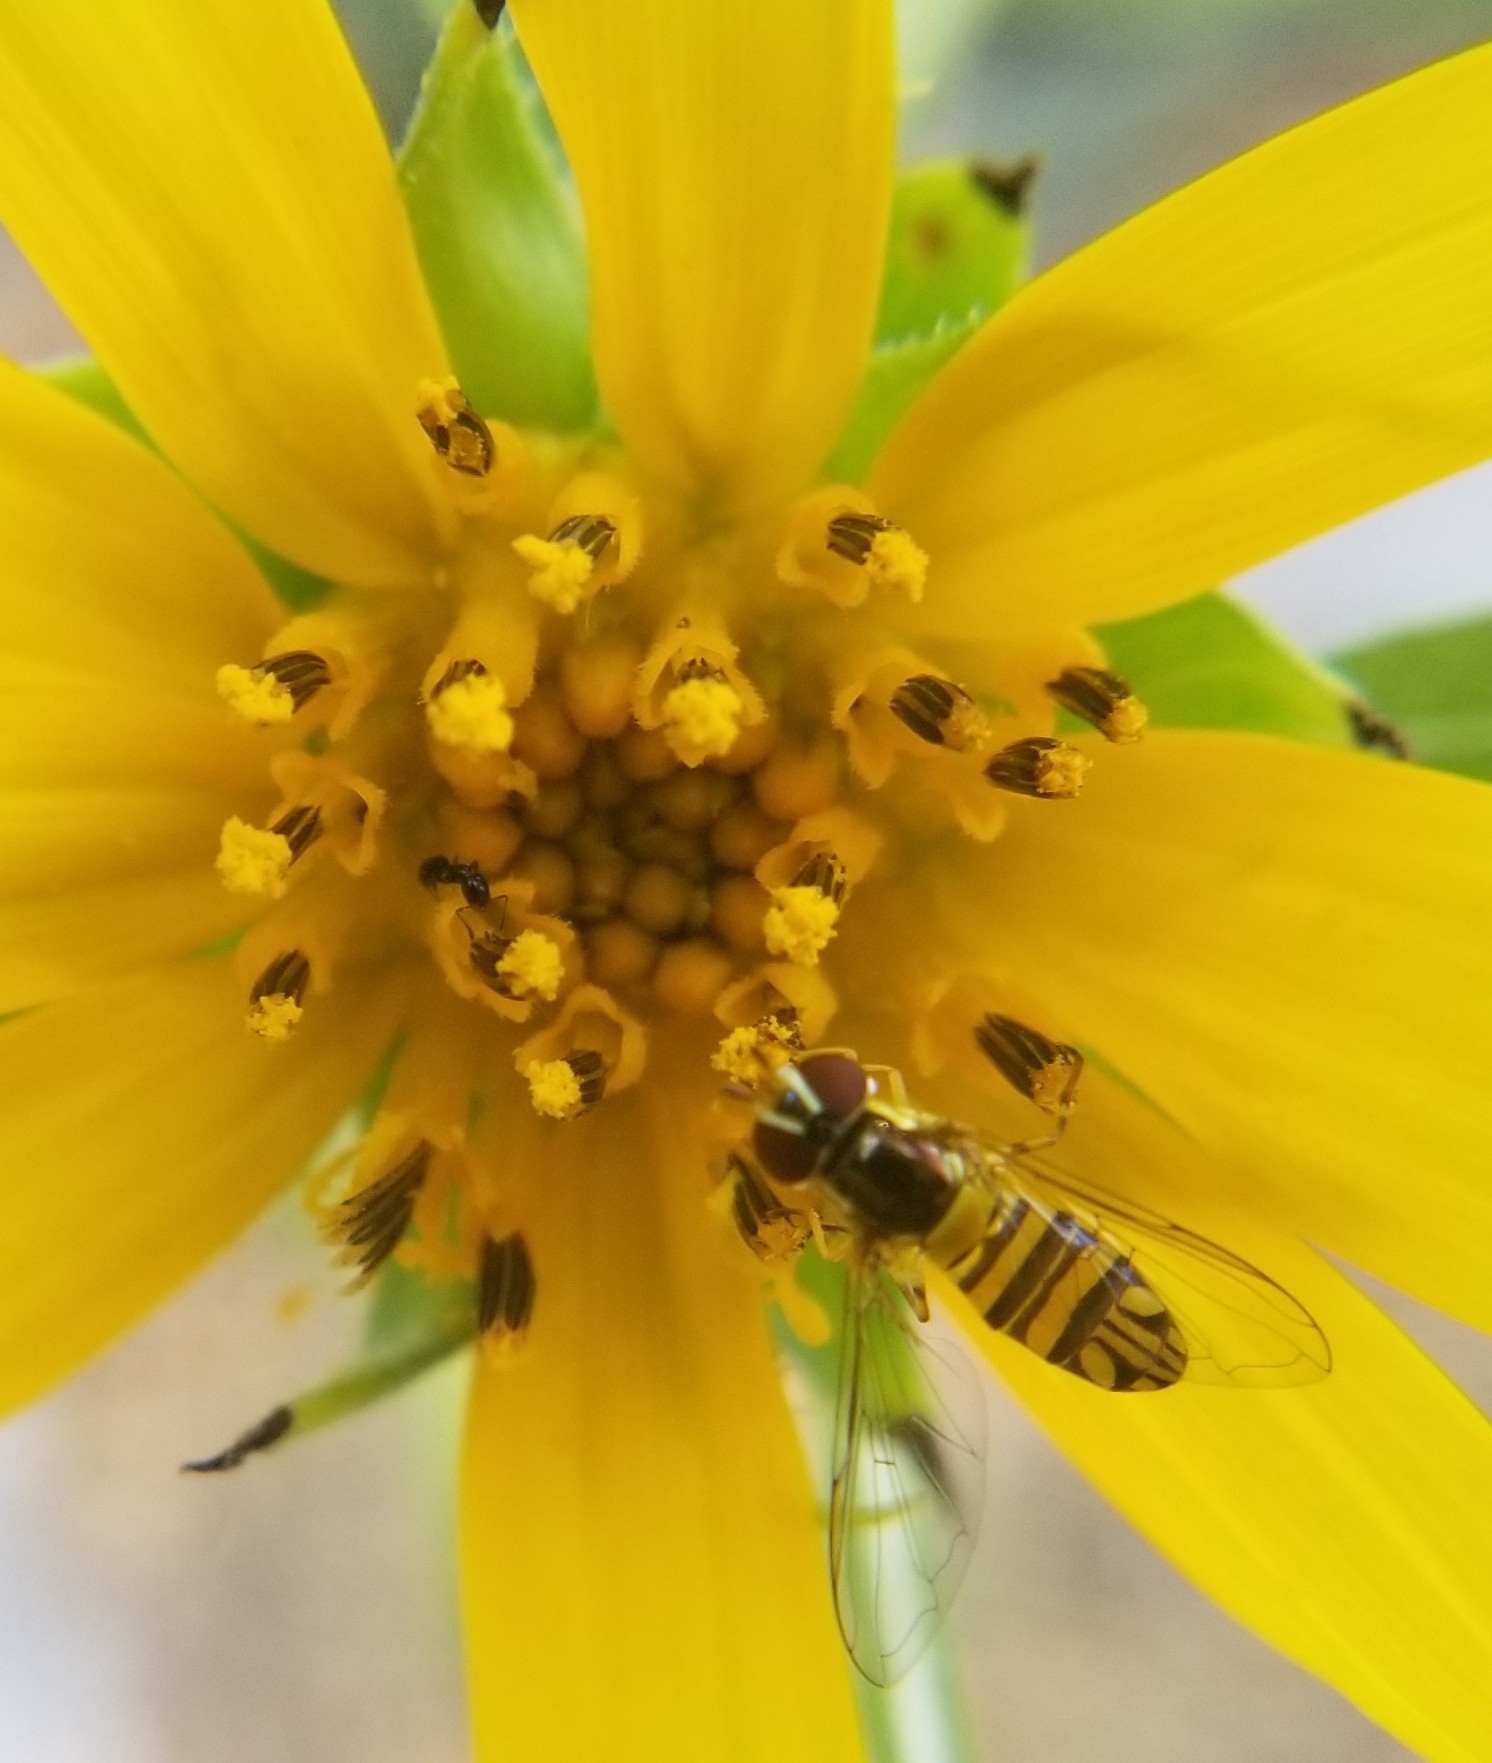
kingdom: Animalia
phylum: Arthropoda
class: Insecta
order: Diptera
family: Syrphidae
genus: Allograpta
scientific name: Allograpta obliqua
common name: Common oblique syrphid
